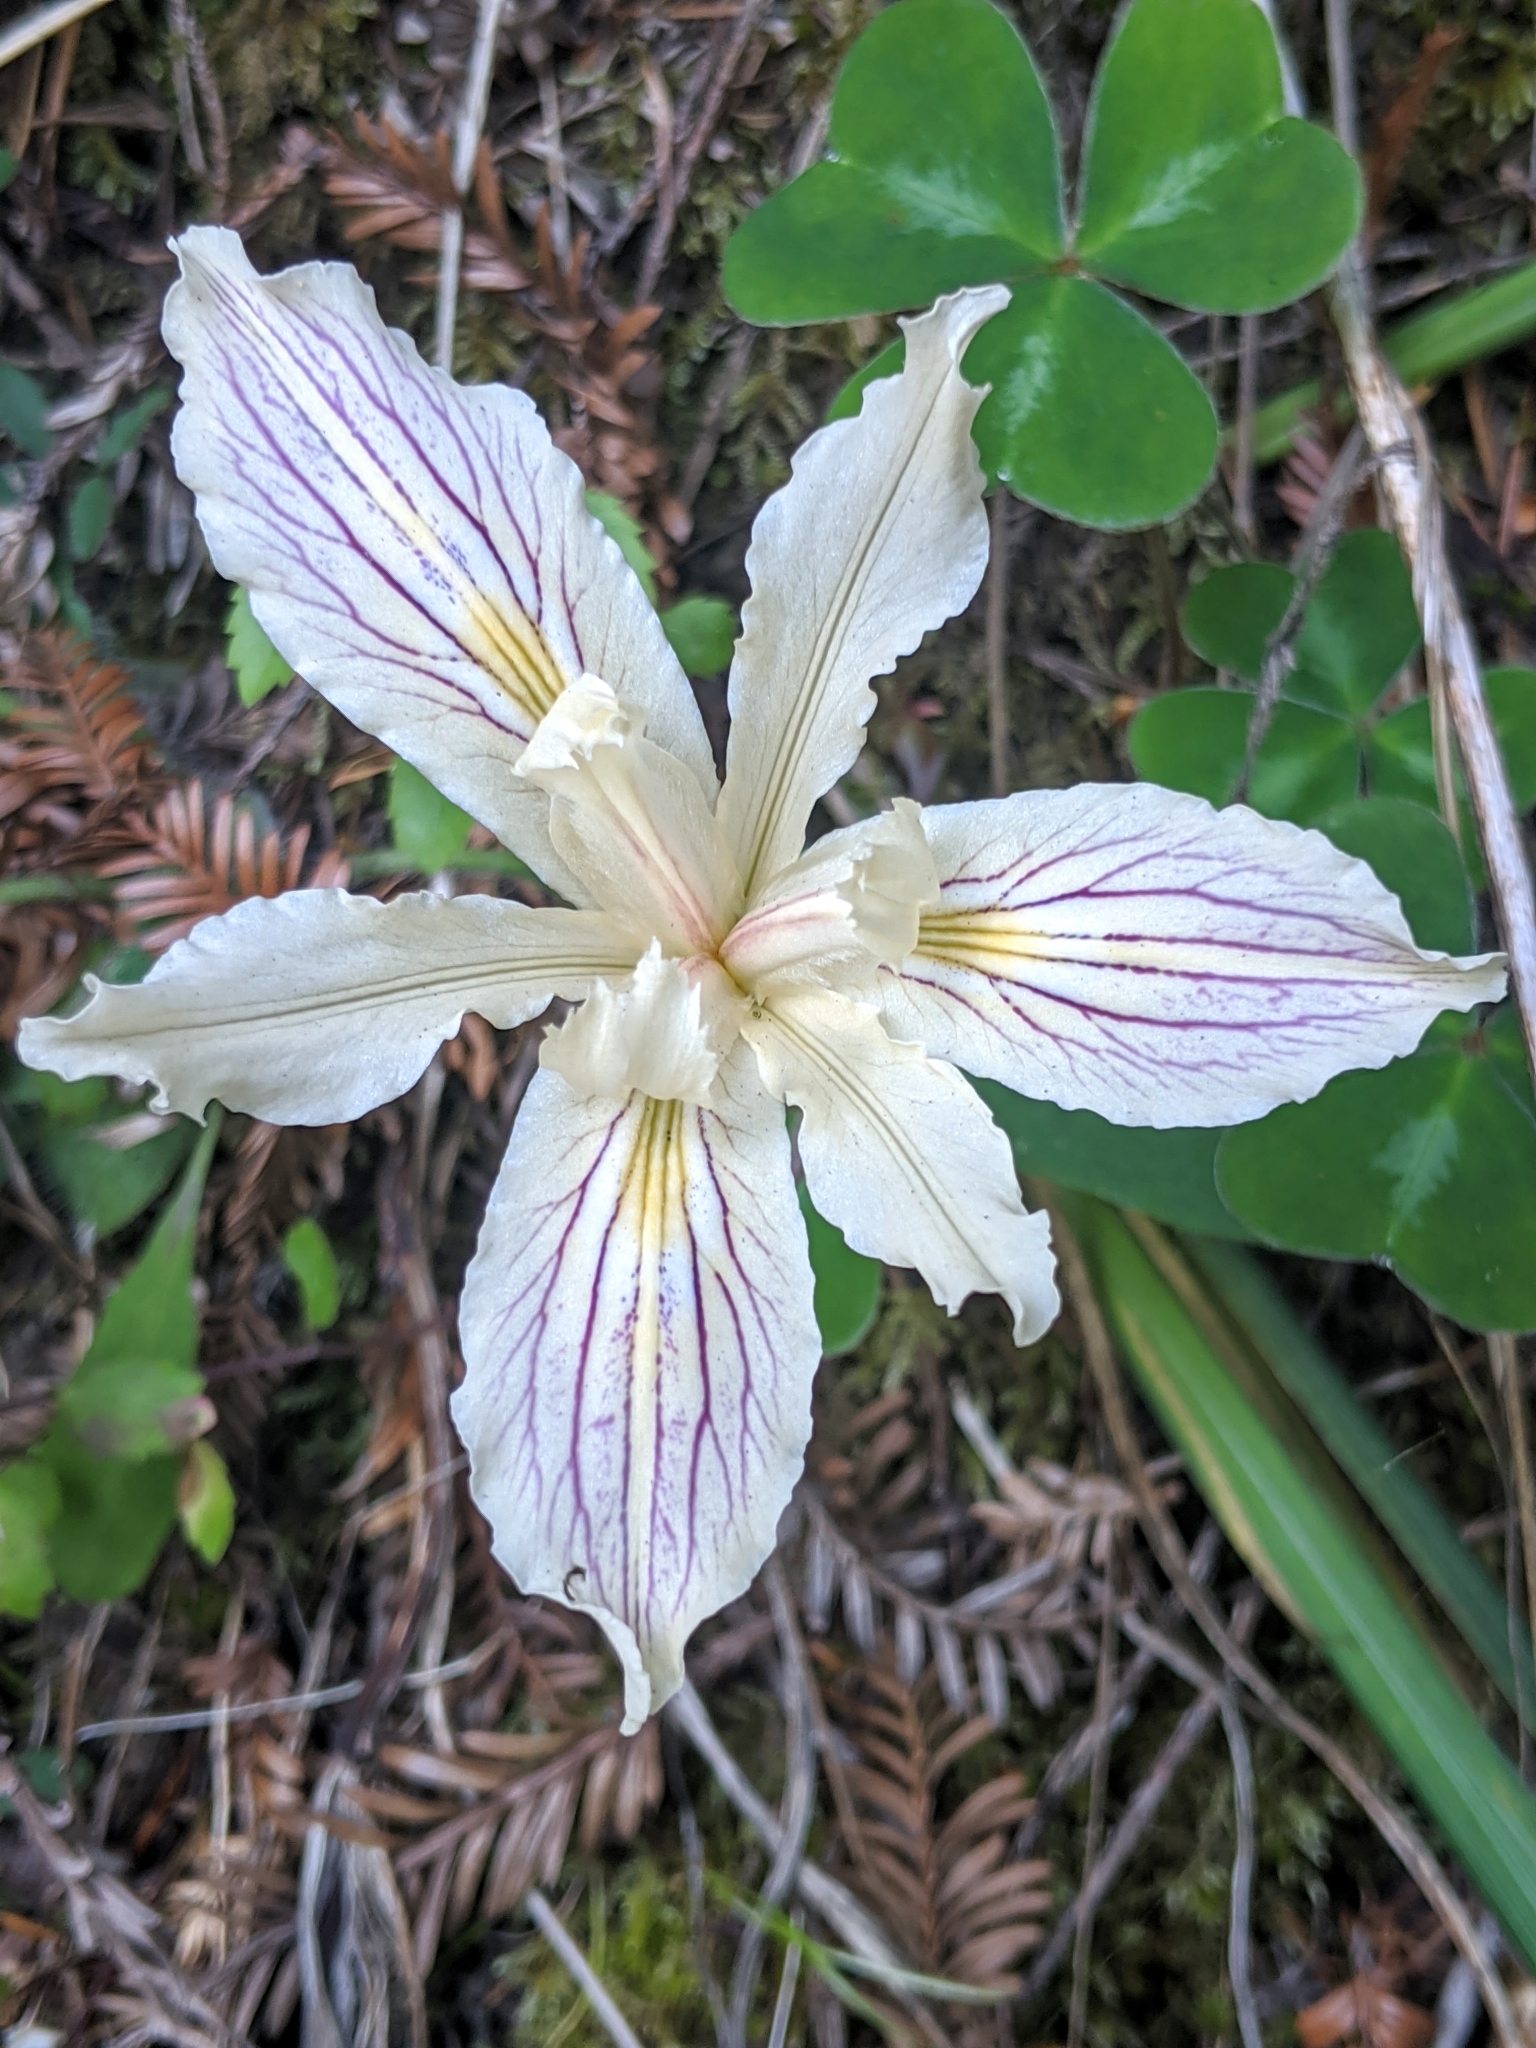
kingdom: Plantae
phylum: Tracheophyta
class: Liliopsida
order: Asparagales
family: Iridaceae
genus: Iris
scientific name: Iris purdyi
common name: Purdy's iris
